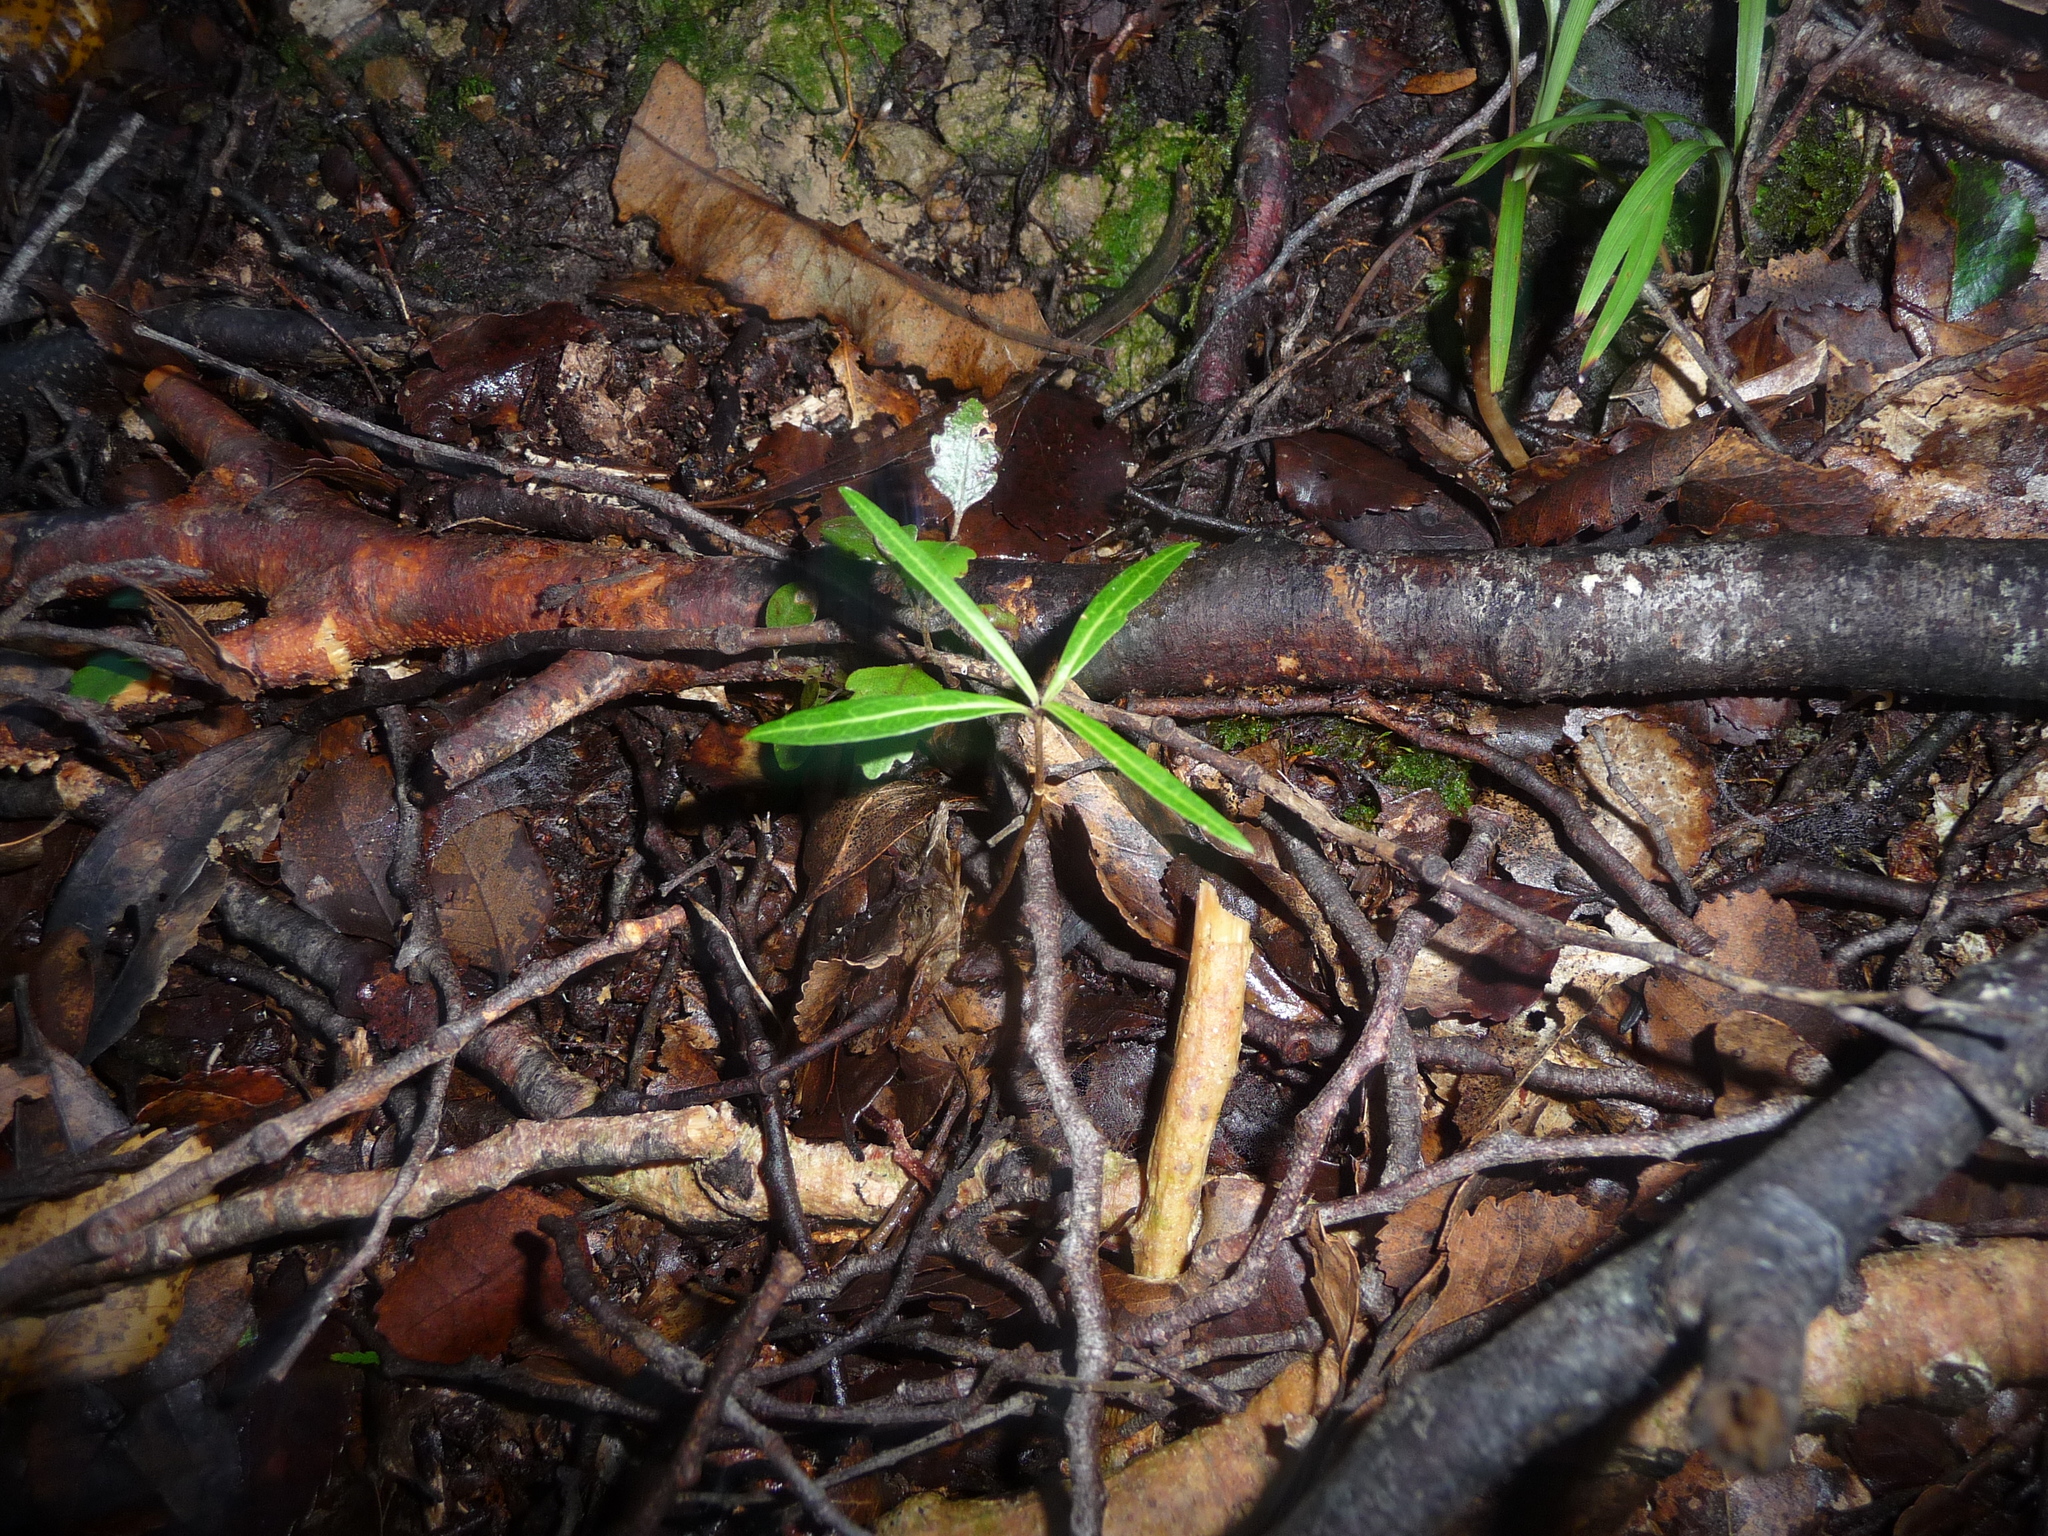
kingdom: Plantae
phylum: Tracheophyta
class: Magnoliopsida
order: Lamiales
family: Oleaceae
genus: Nestegis
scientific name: Nestegis lanceolata
